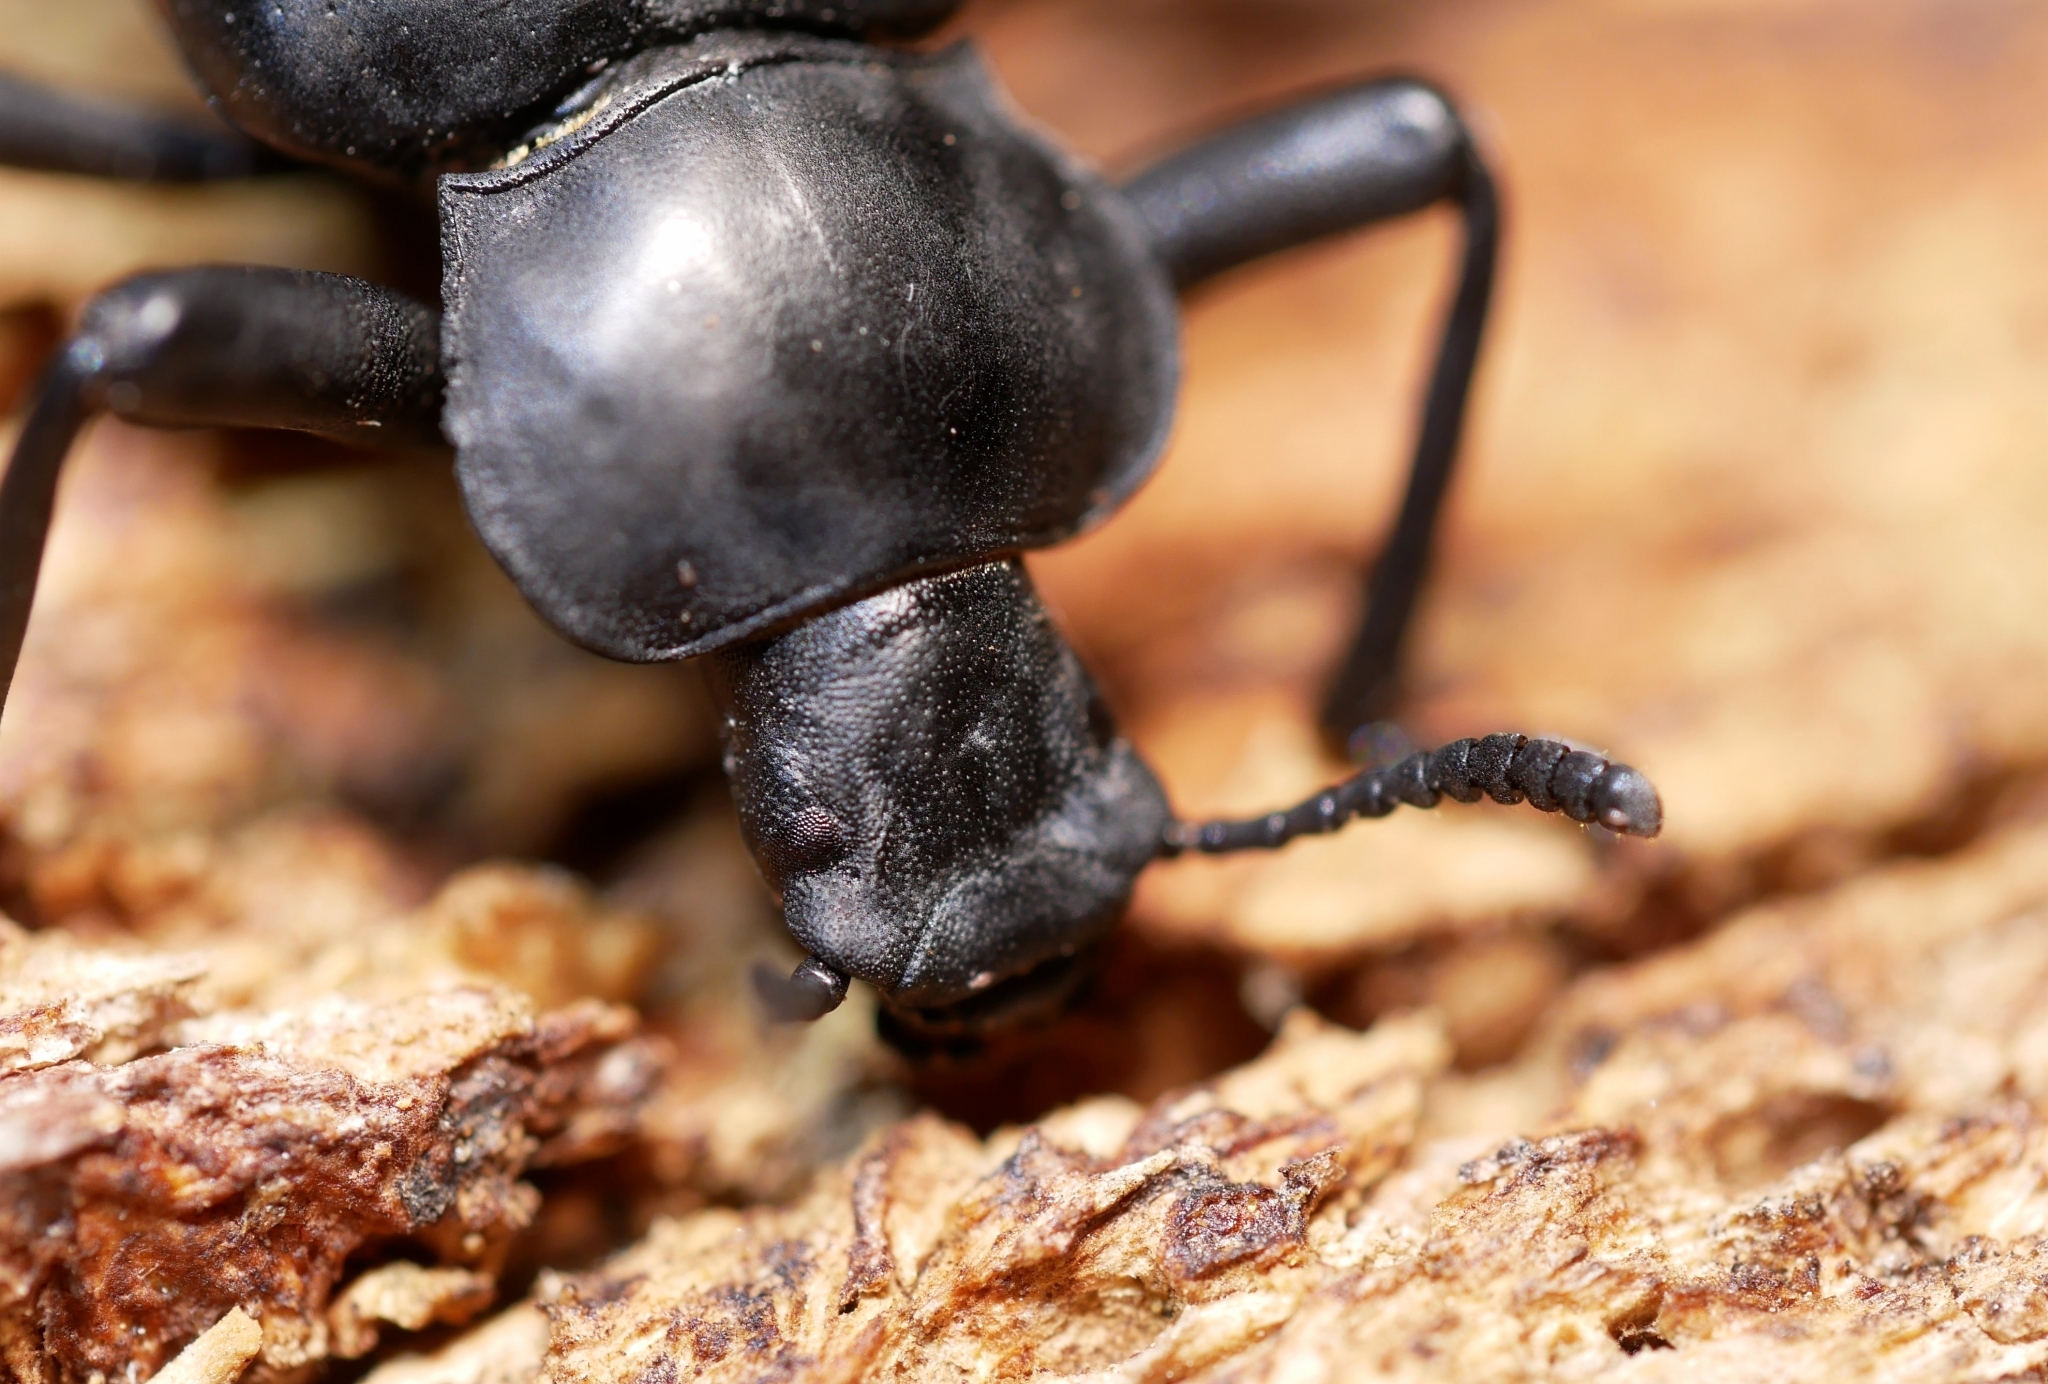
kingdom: Animalia
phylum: Arthropoda
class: Insecta
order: Coleoptera
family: Tenebrionidae
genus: Iphthiminus
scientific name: Iphthiminus lewisii
